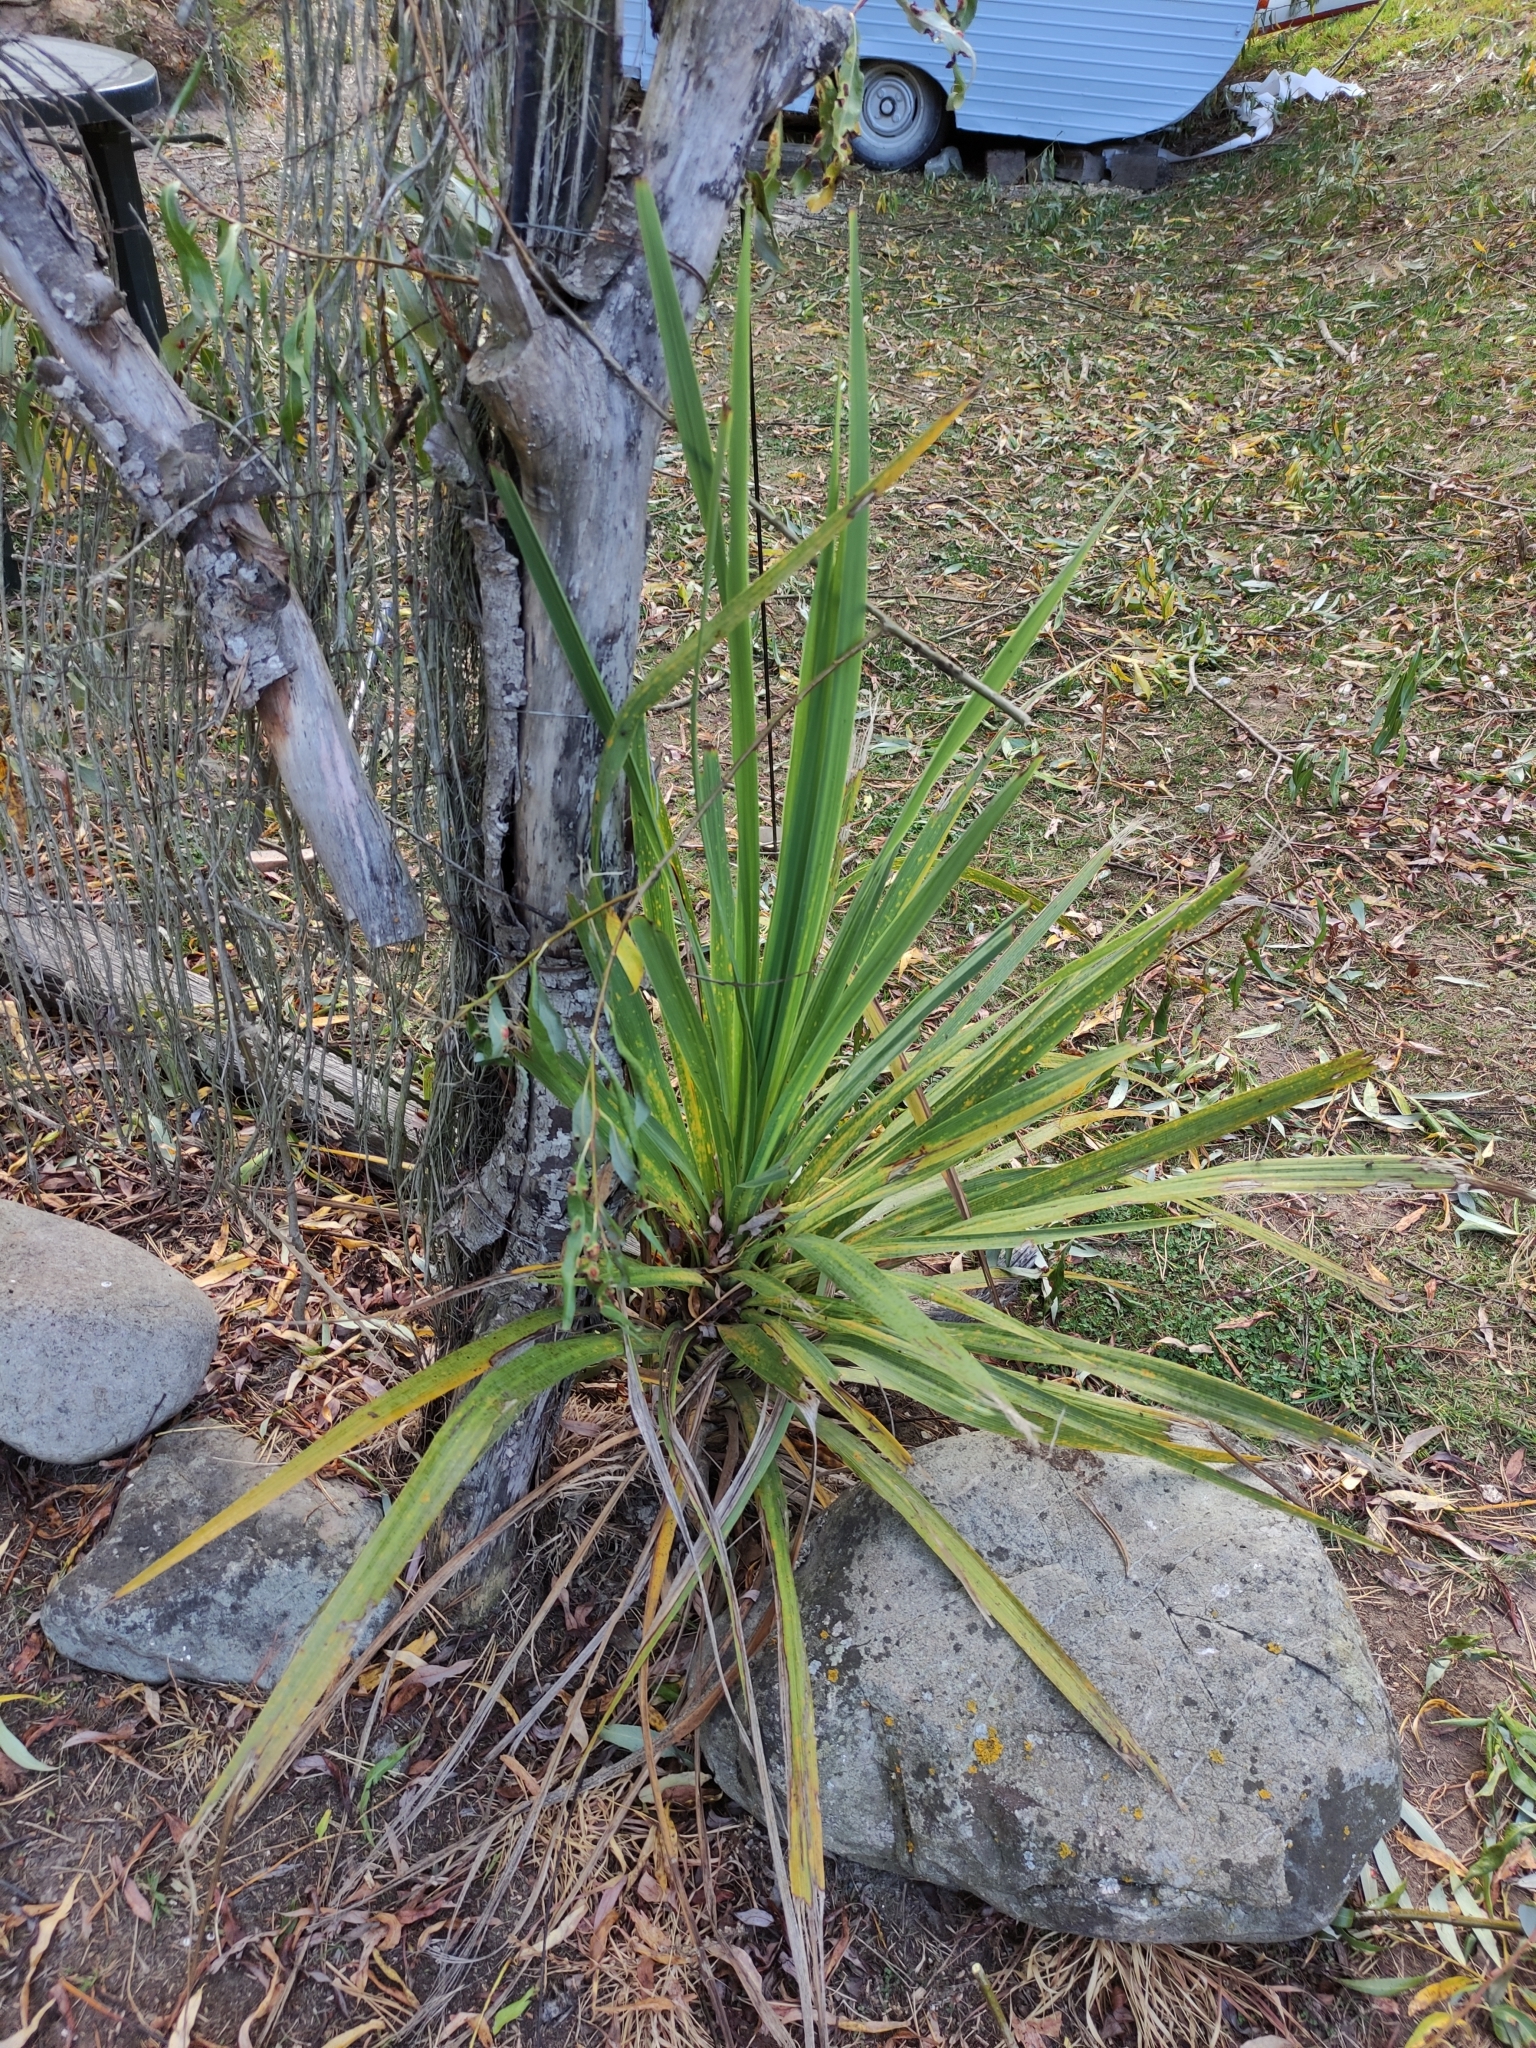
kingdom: Plantae
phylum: Tracheophyta
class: Liliopsida
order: Asparagales
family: Asparagaceae
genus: Cordyline
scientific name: Cordyline australis
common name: Cabbage-palm
